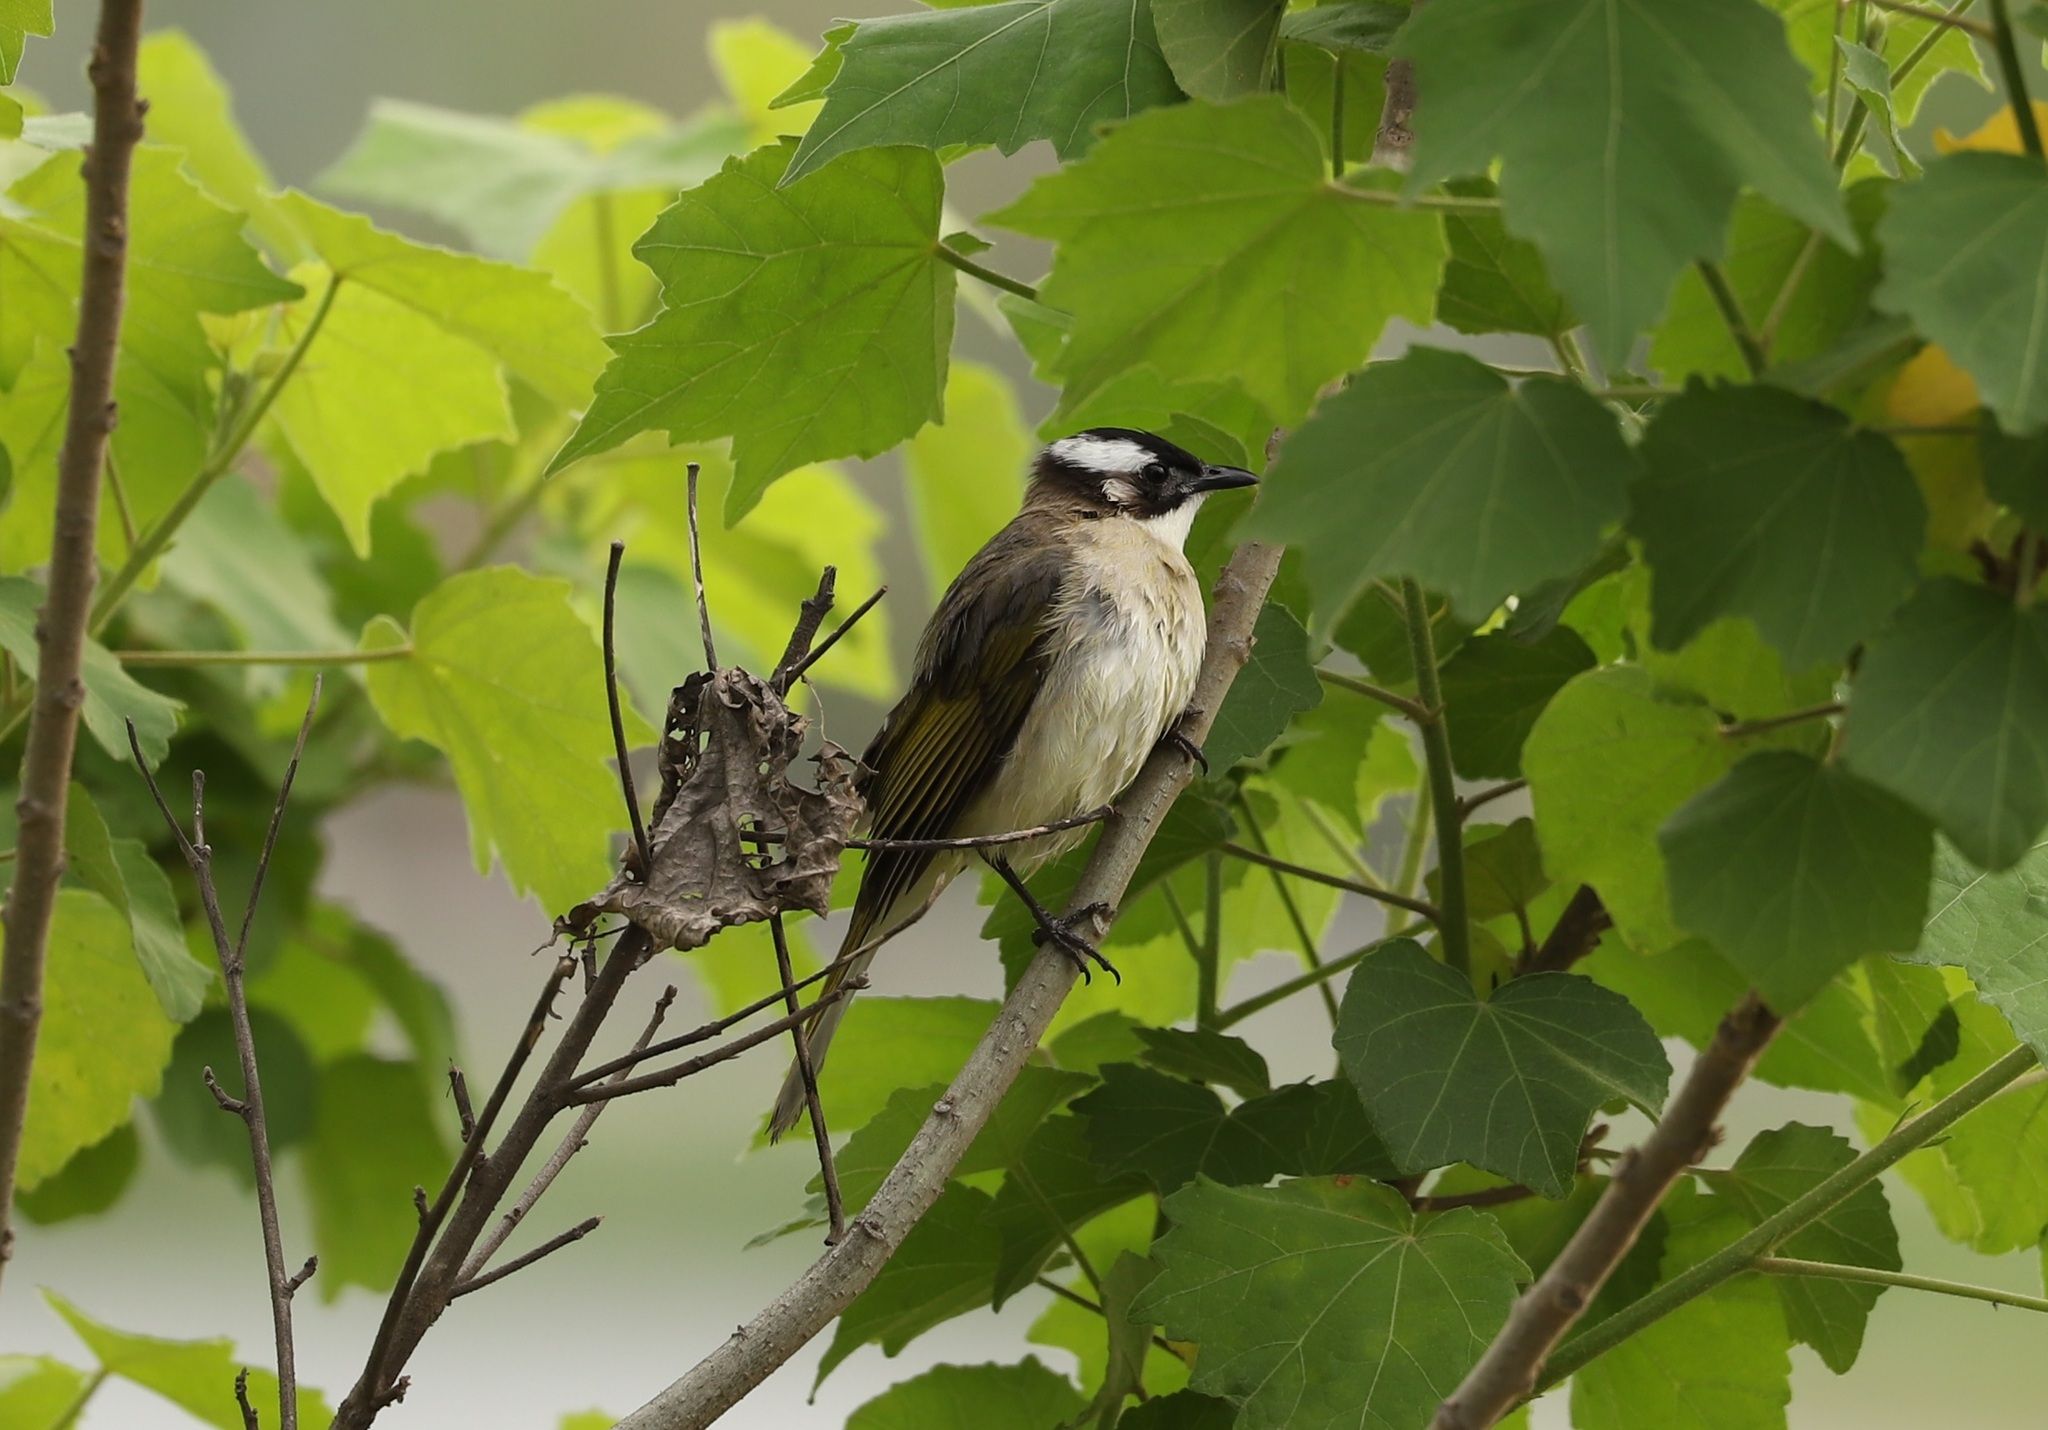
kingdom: Animalia
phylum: Chordata
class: Aves
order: Passeriformes
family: Pycnonotidae
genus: Pycnonotus
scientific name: Pycnonotus sinensis
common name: Light-vented bulbul
